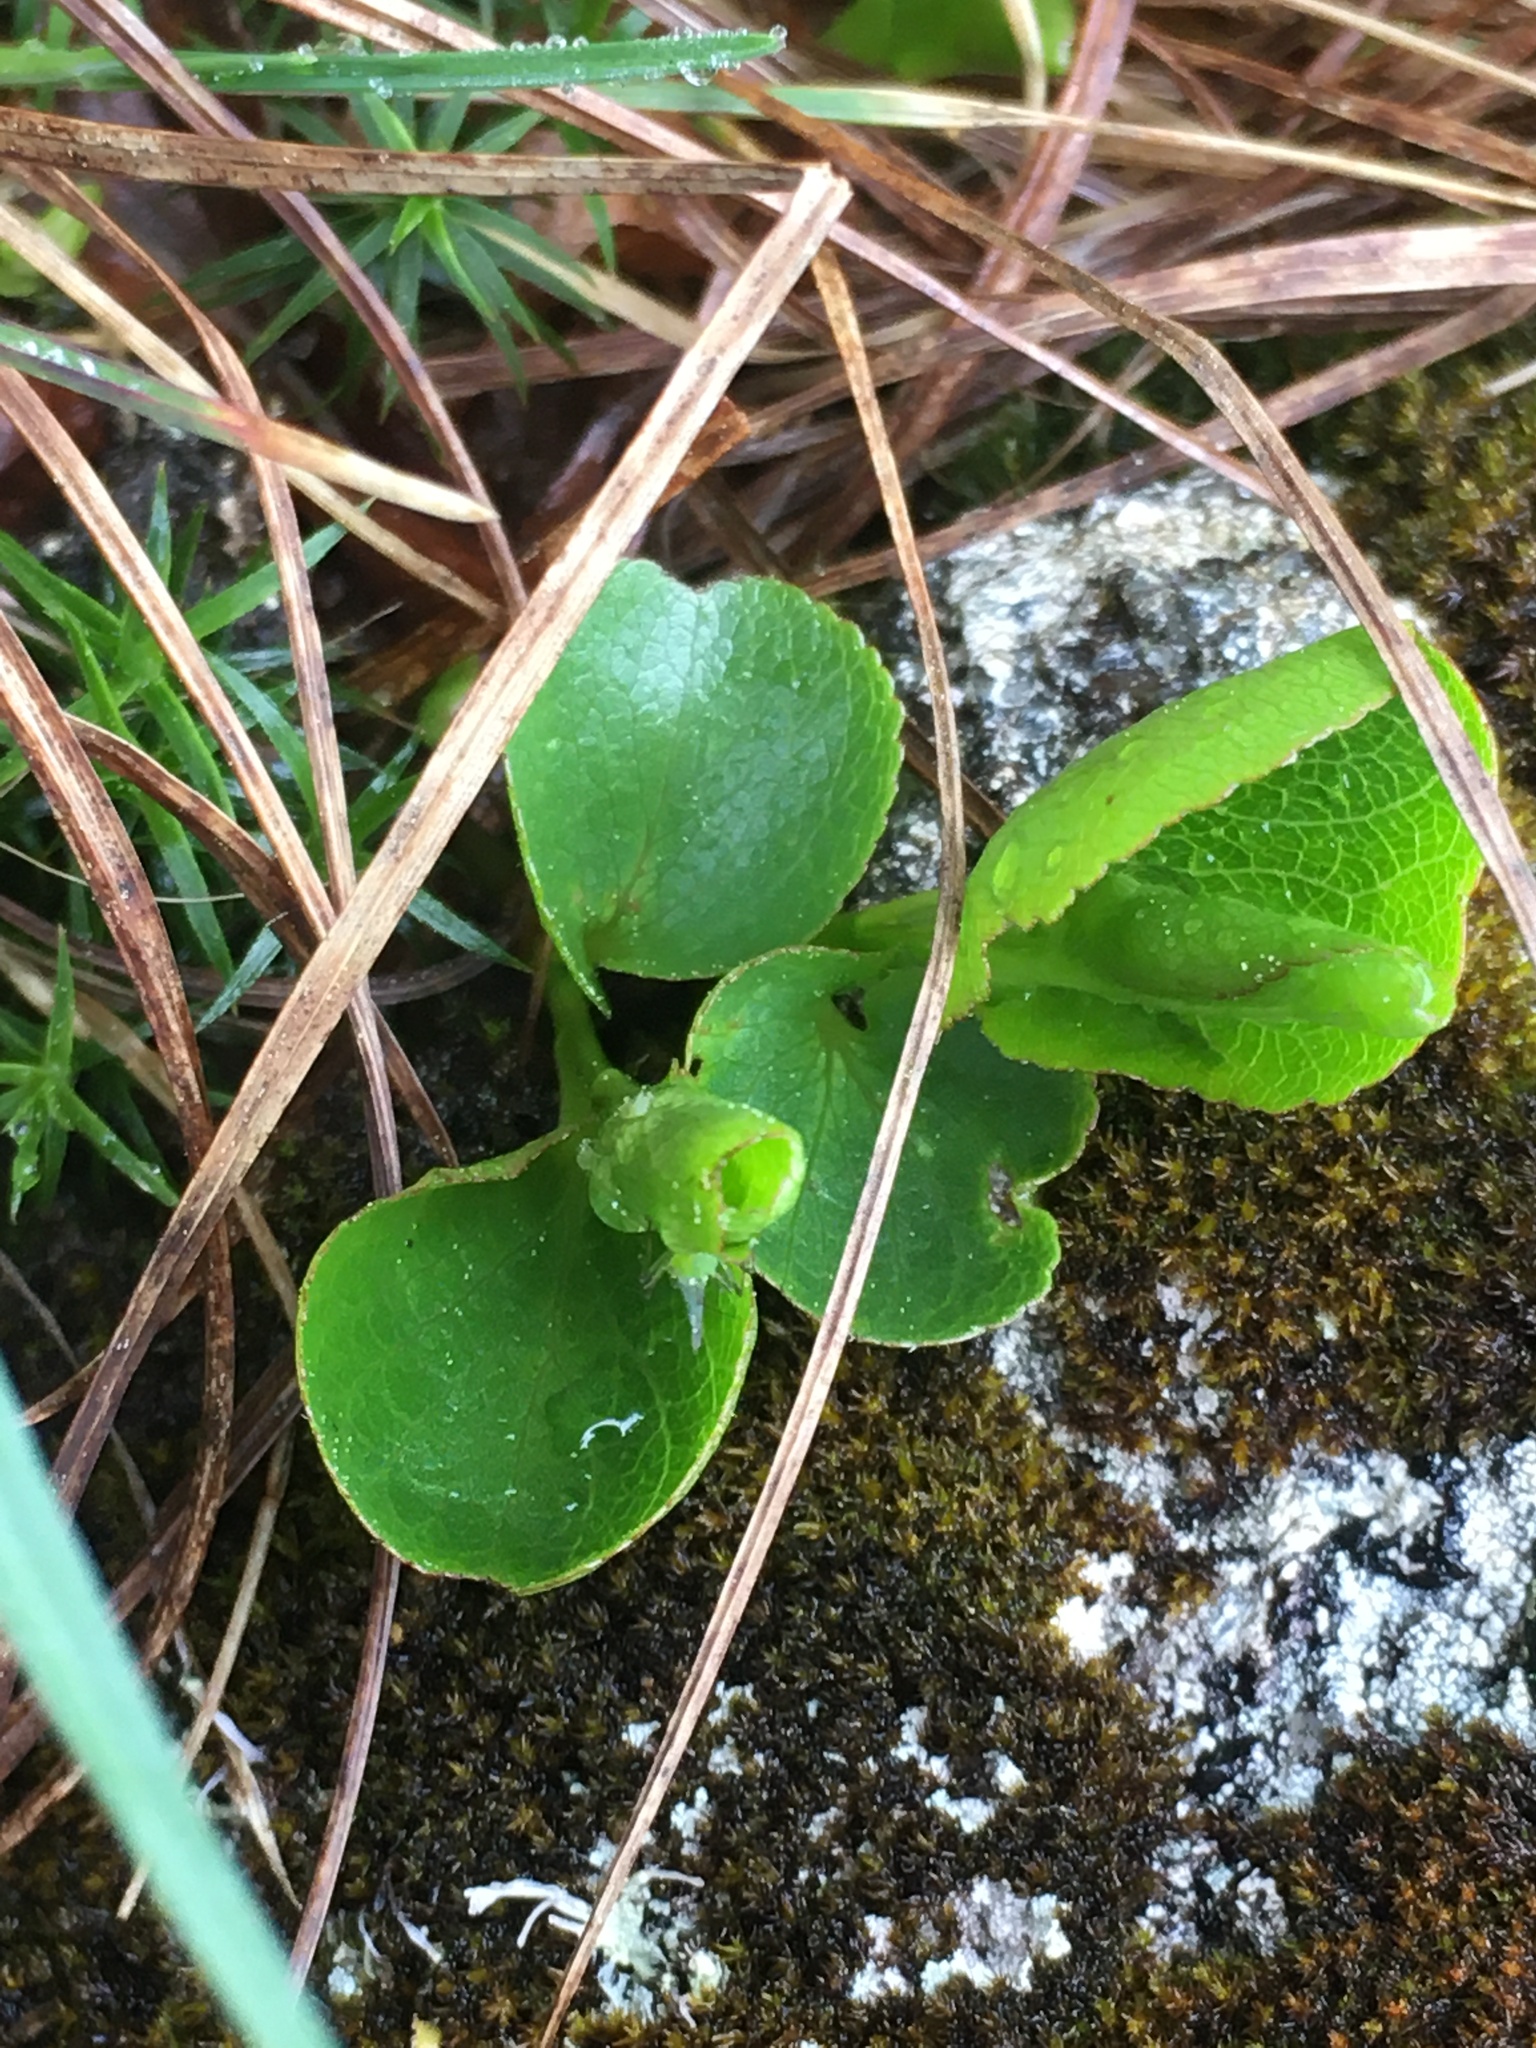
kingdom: Plantae
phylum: Tracheophyta
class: Magnoliopsida
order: Malpighiales
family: Salicaceae
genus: Salix
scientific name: Salix herbacea
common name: Dwarf willow
